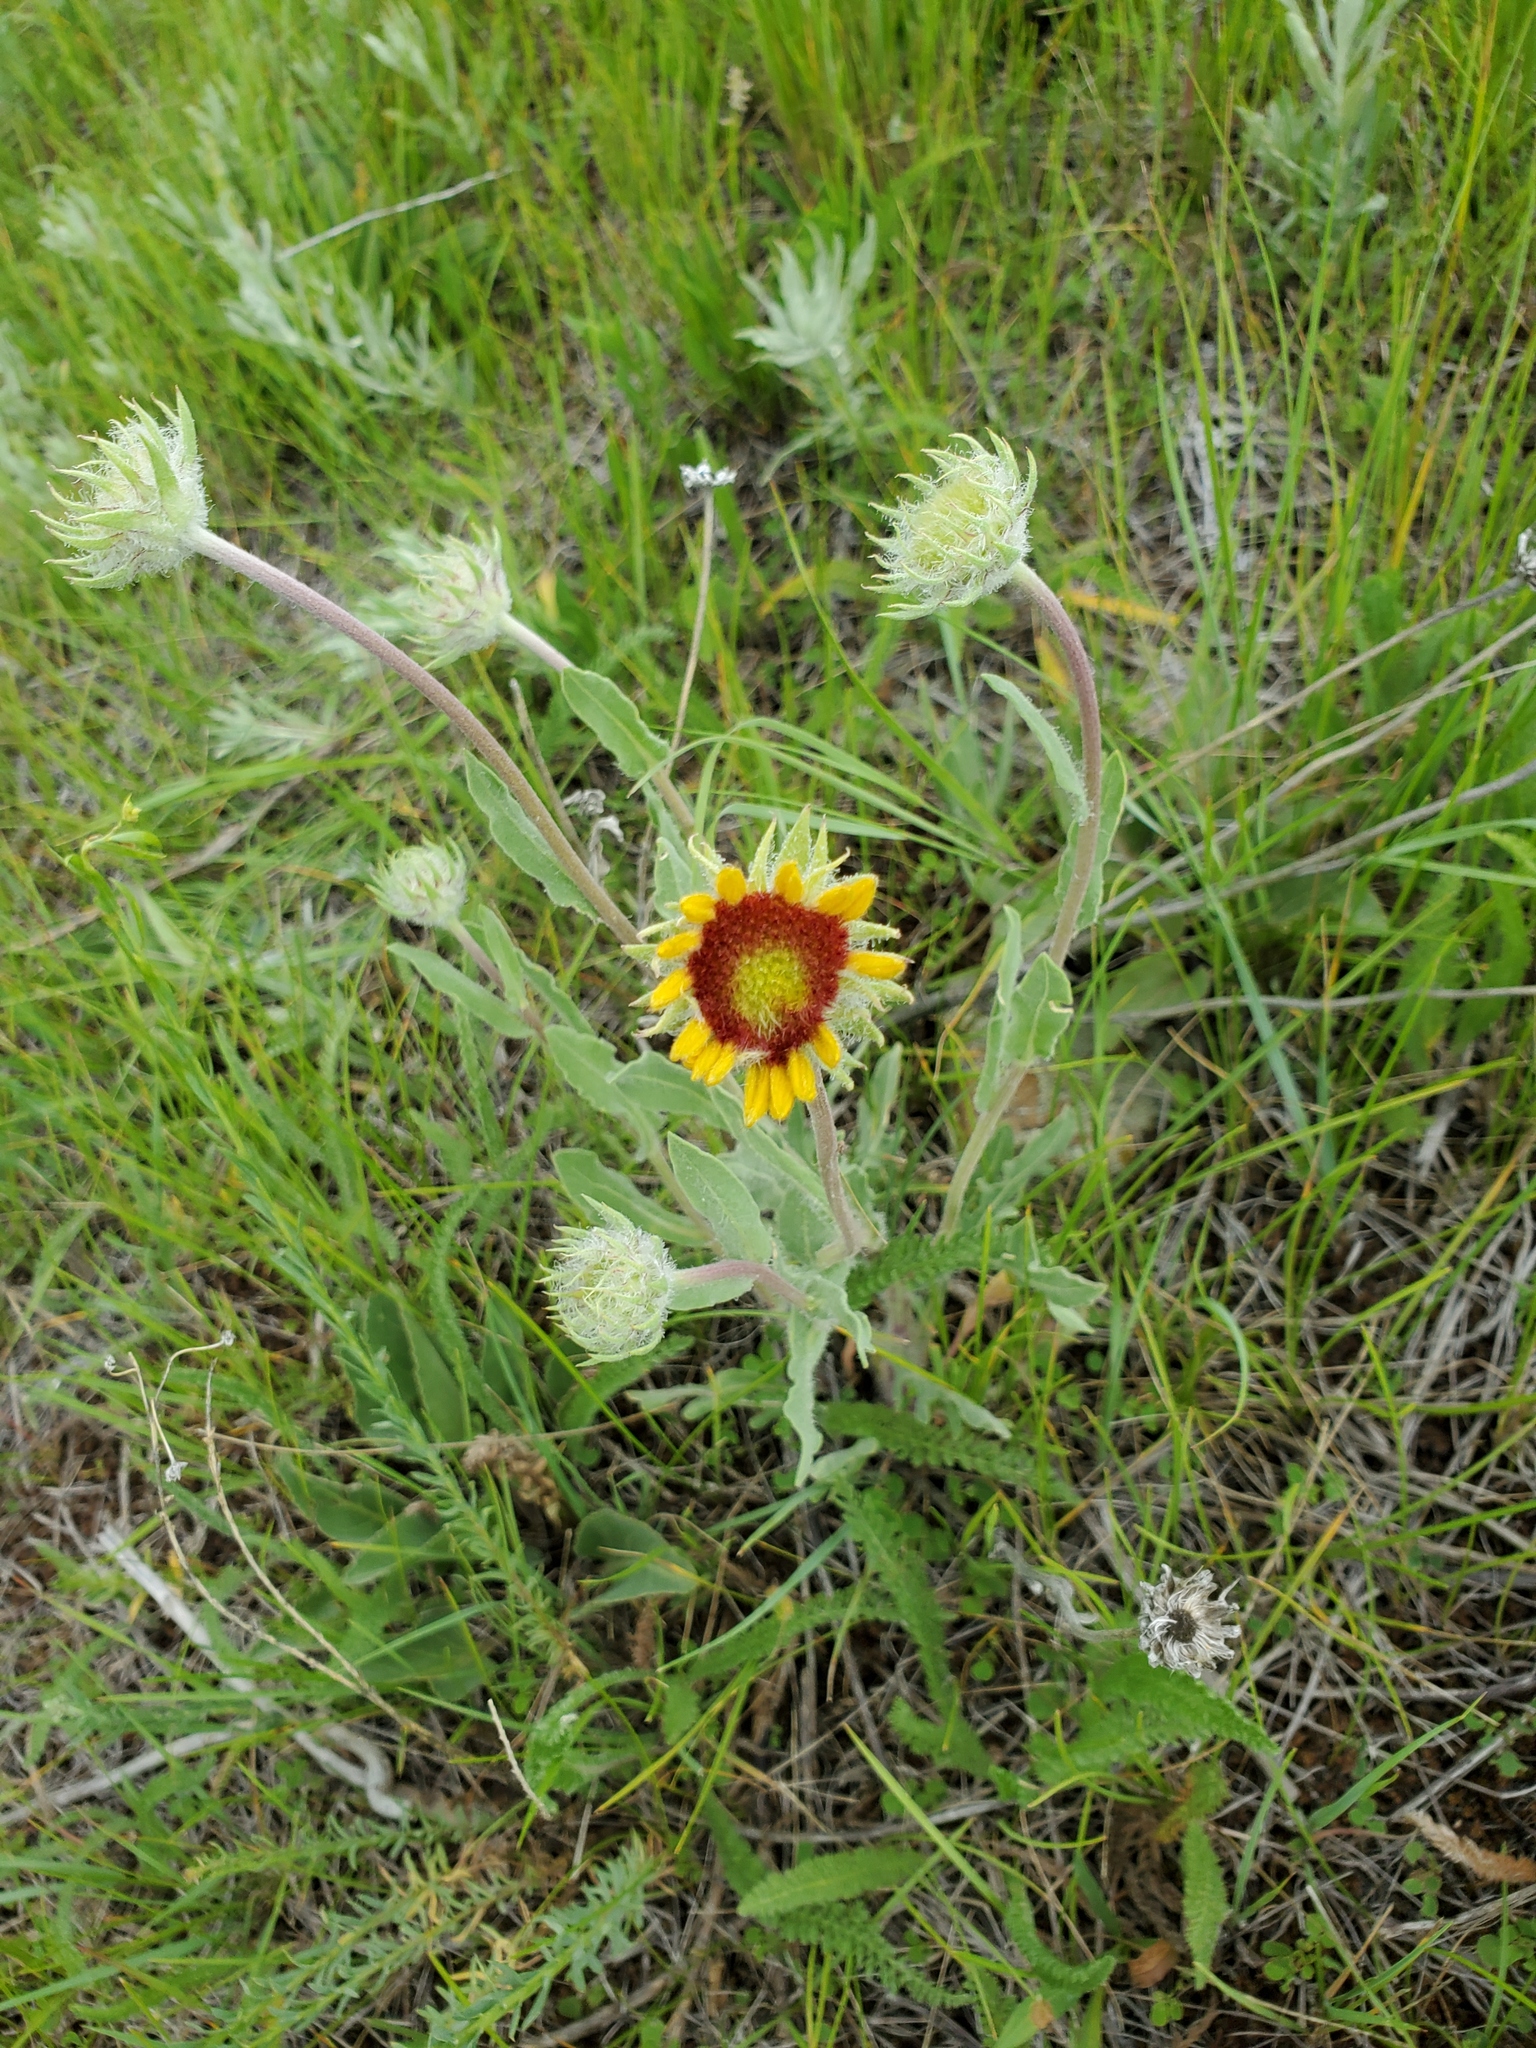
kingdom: Plantae
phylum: Tracheophyta
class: Magnoliopsida
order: Asterales
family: Asteraceae
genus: Gaillardia
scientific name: Gaillardia aristata
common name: Blanket-flower
